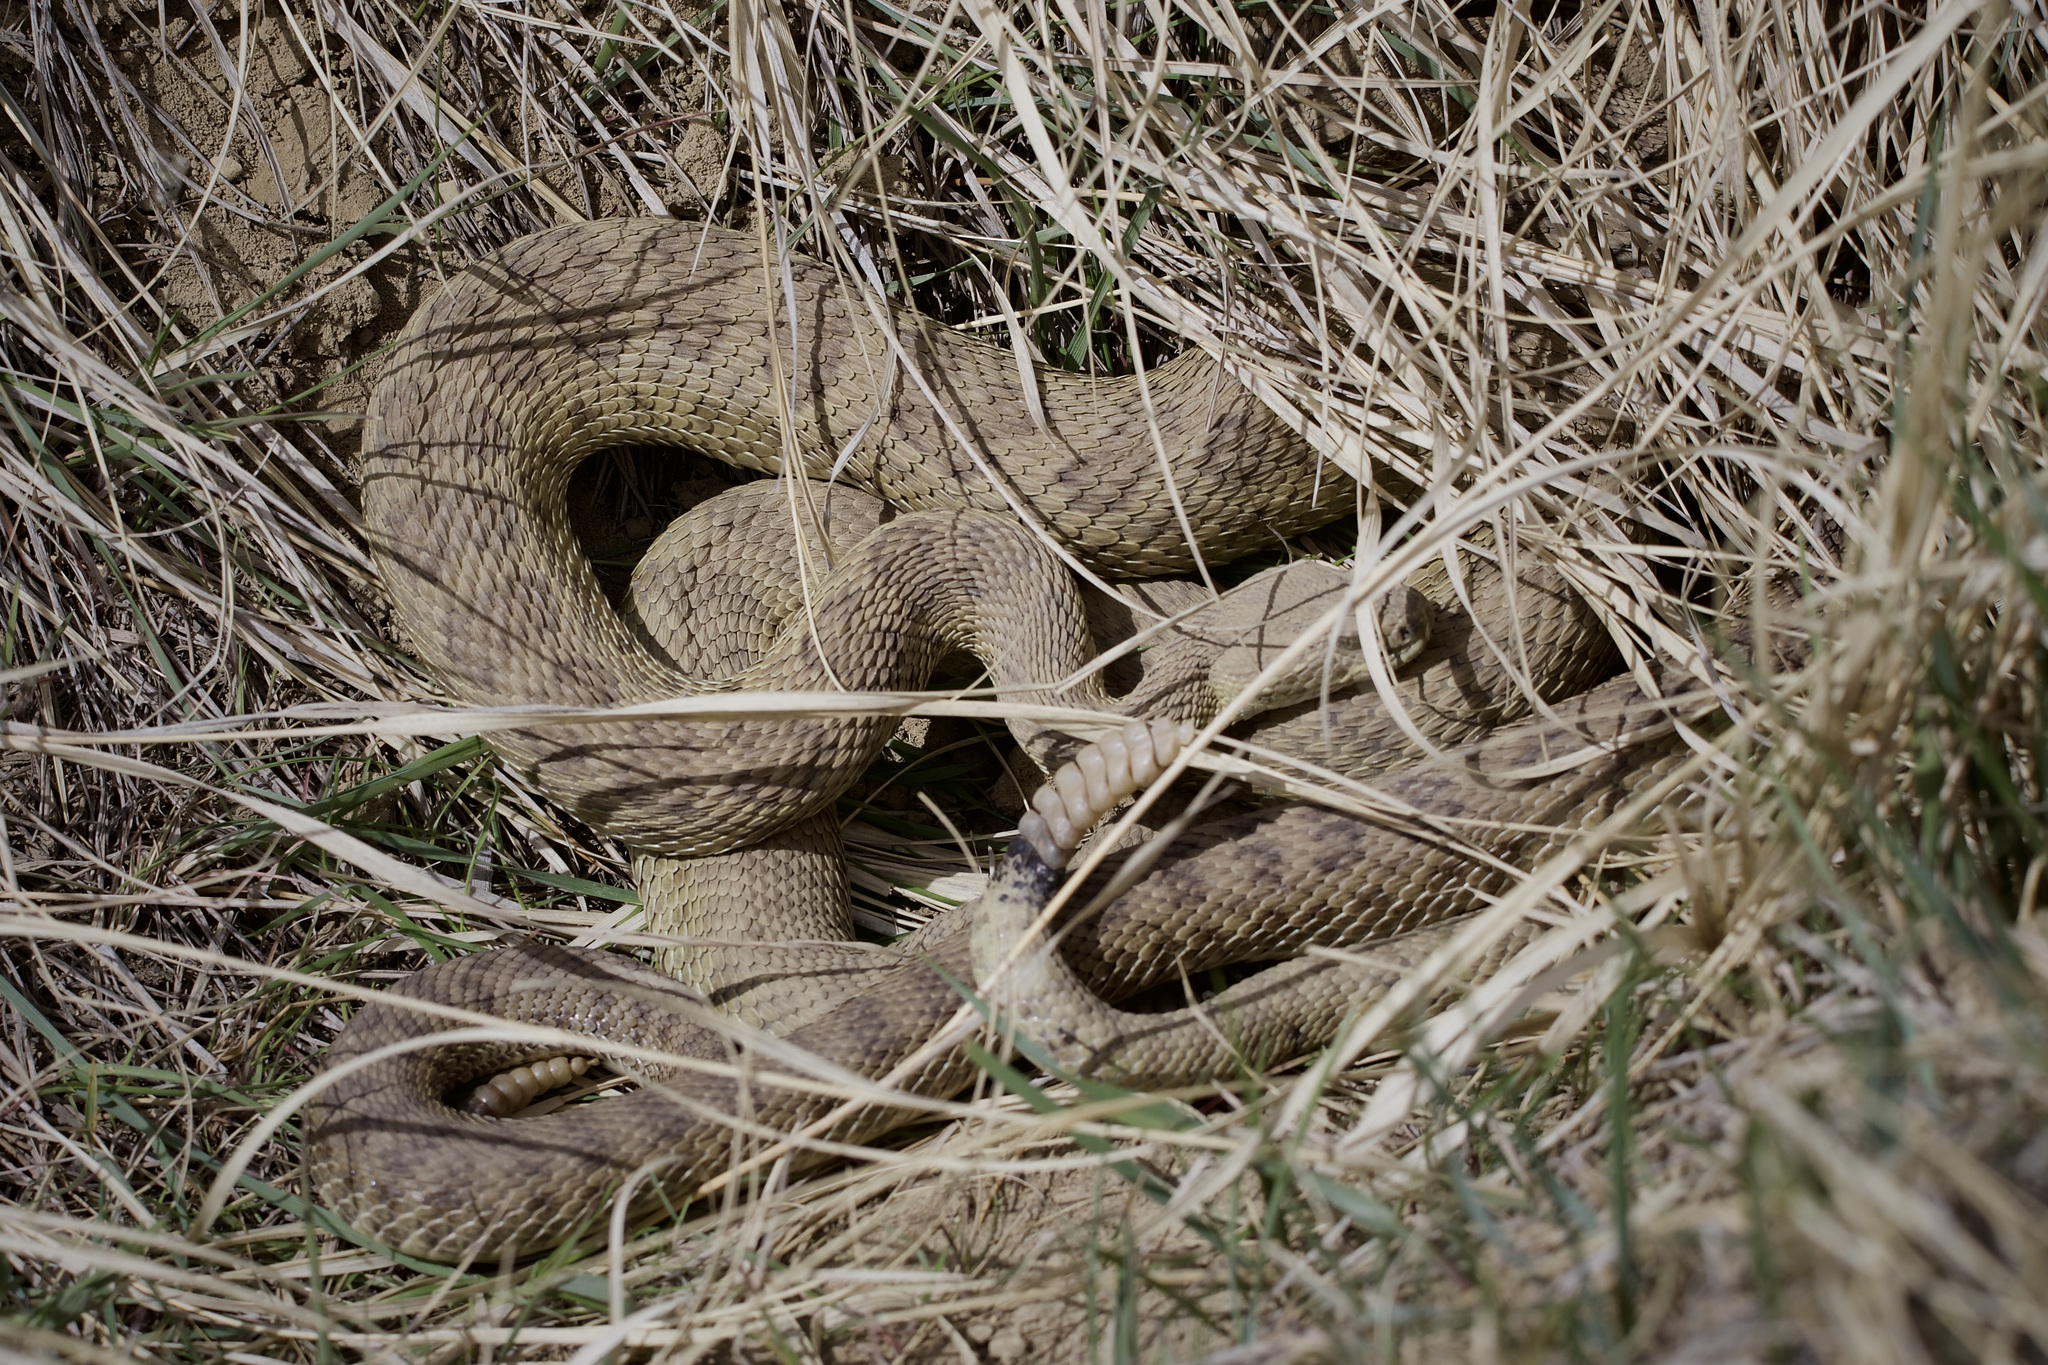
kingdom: Animalia
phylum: Chordata
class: Squamata
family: Viperidae
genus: Crotalus
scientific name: Crotalus viridis
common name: Prairie rattlesnake
